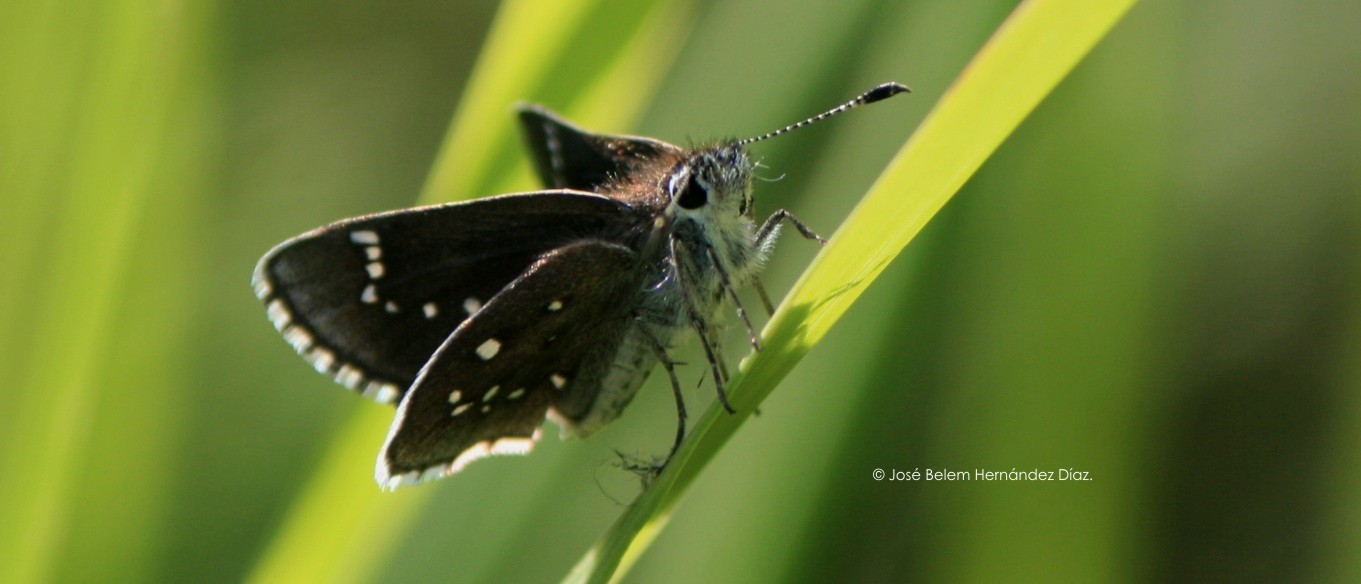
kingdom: Animalia
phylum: Arthropoda
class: Insecta
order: Lepidoptera
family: Hesperiidae
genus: Mastor
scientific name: Mastor eos
